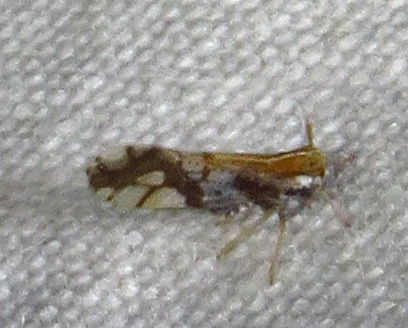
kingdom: Animalia
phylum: Arthropoda
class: Insecta
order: Hemiptera
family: Delphacidae
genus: Liburniella
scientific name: Liburniella ornata
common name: Ornate planthopper
